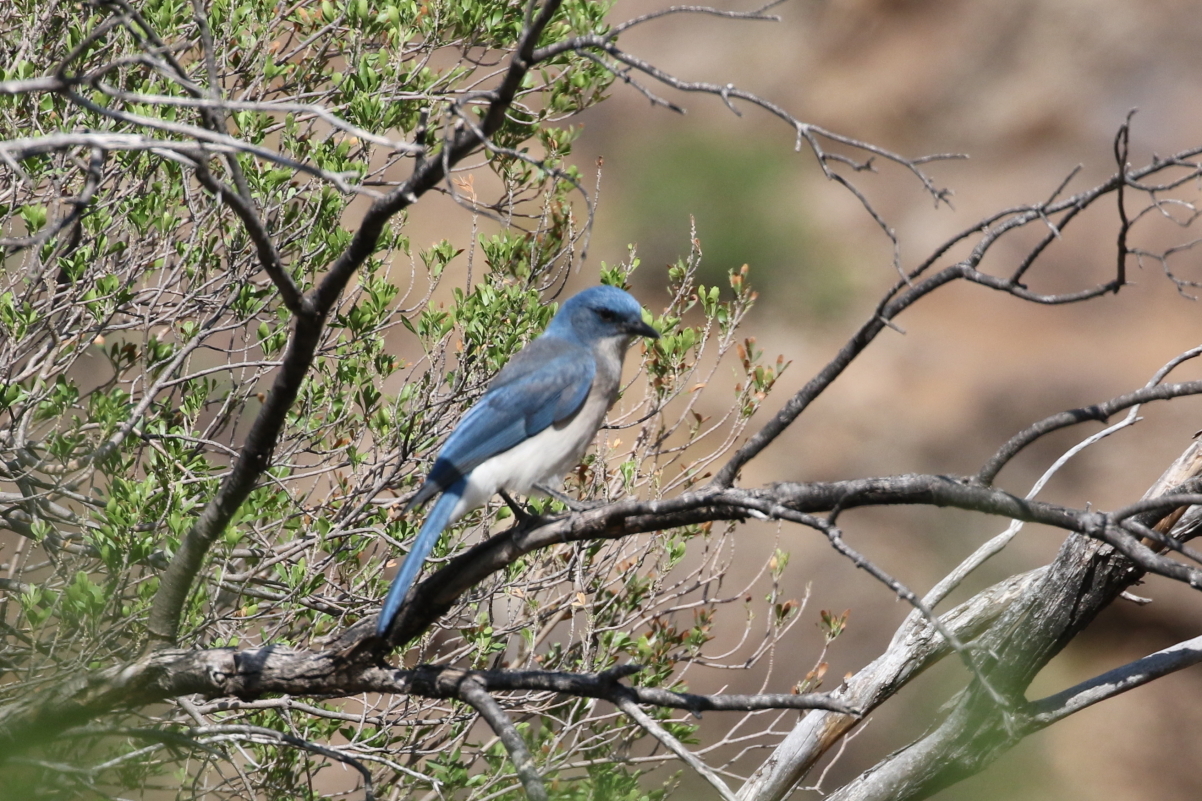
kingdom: Animalia
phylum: Chordata
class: Aves
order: Passeriformes
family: Corvidae
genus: Aphelocoma
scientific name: Aphelocoma wollweberi
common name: Mexican jay
